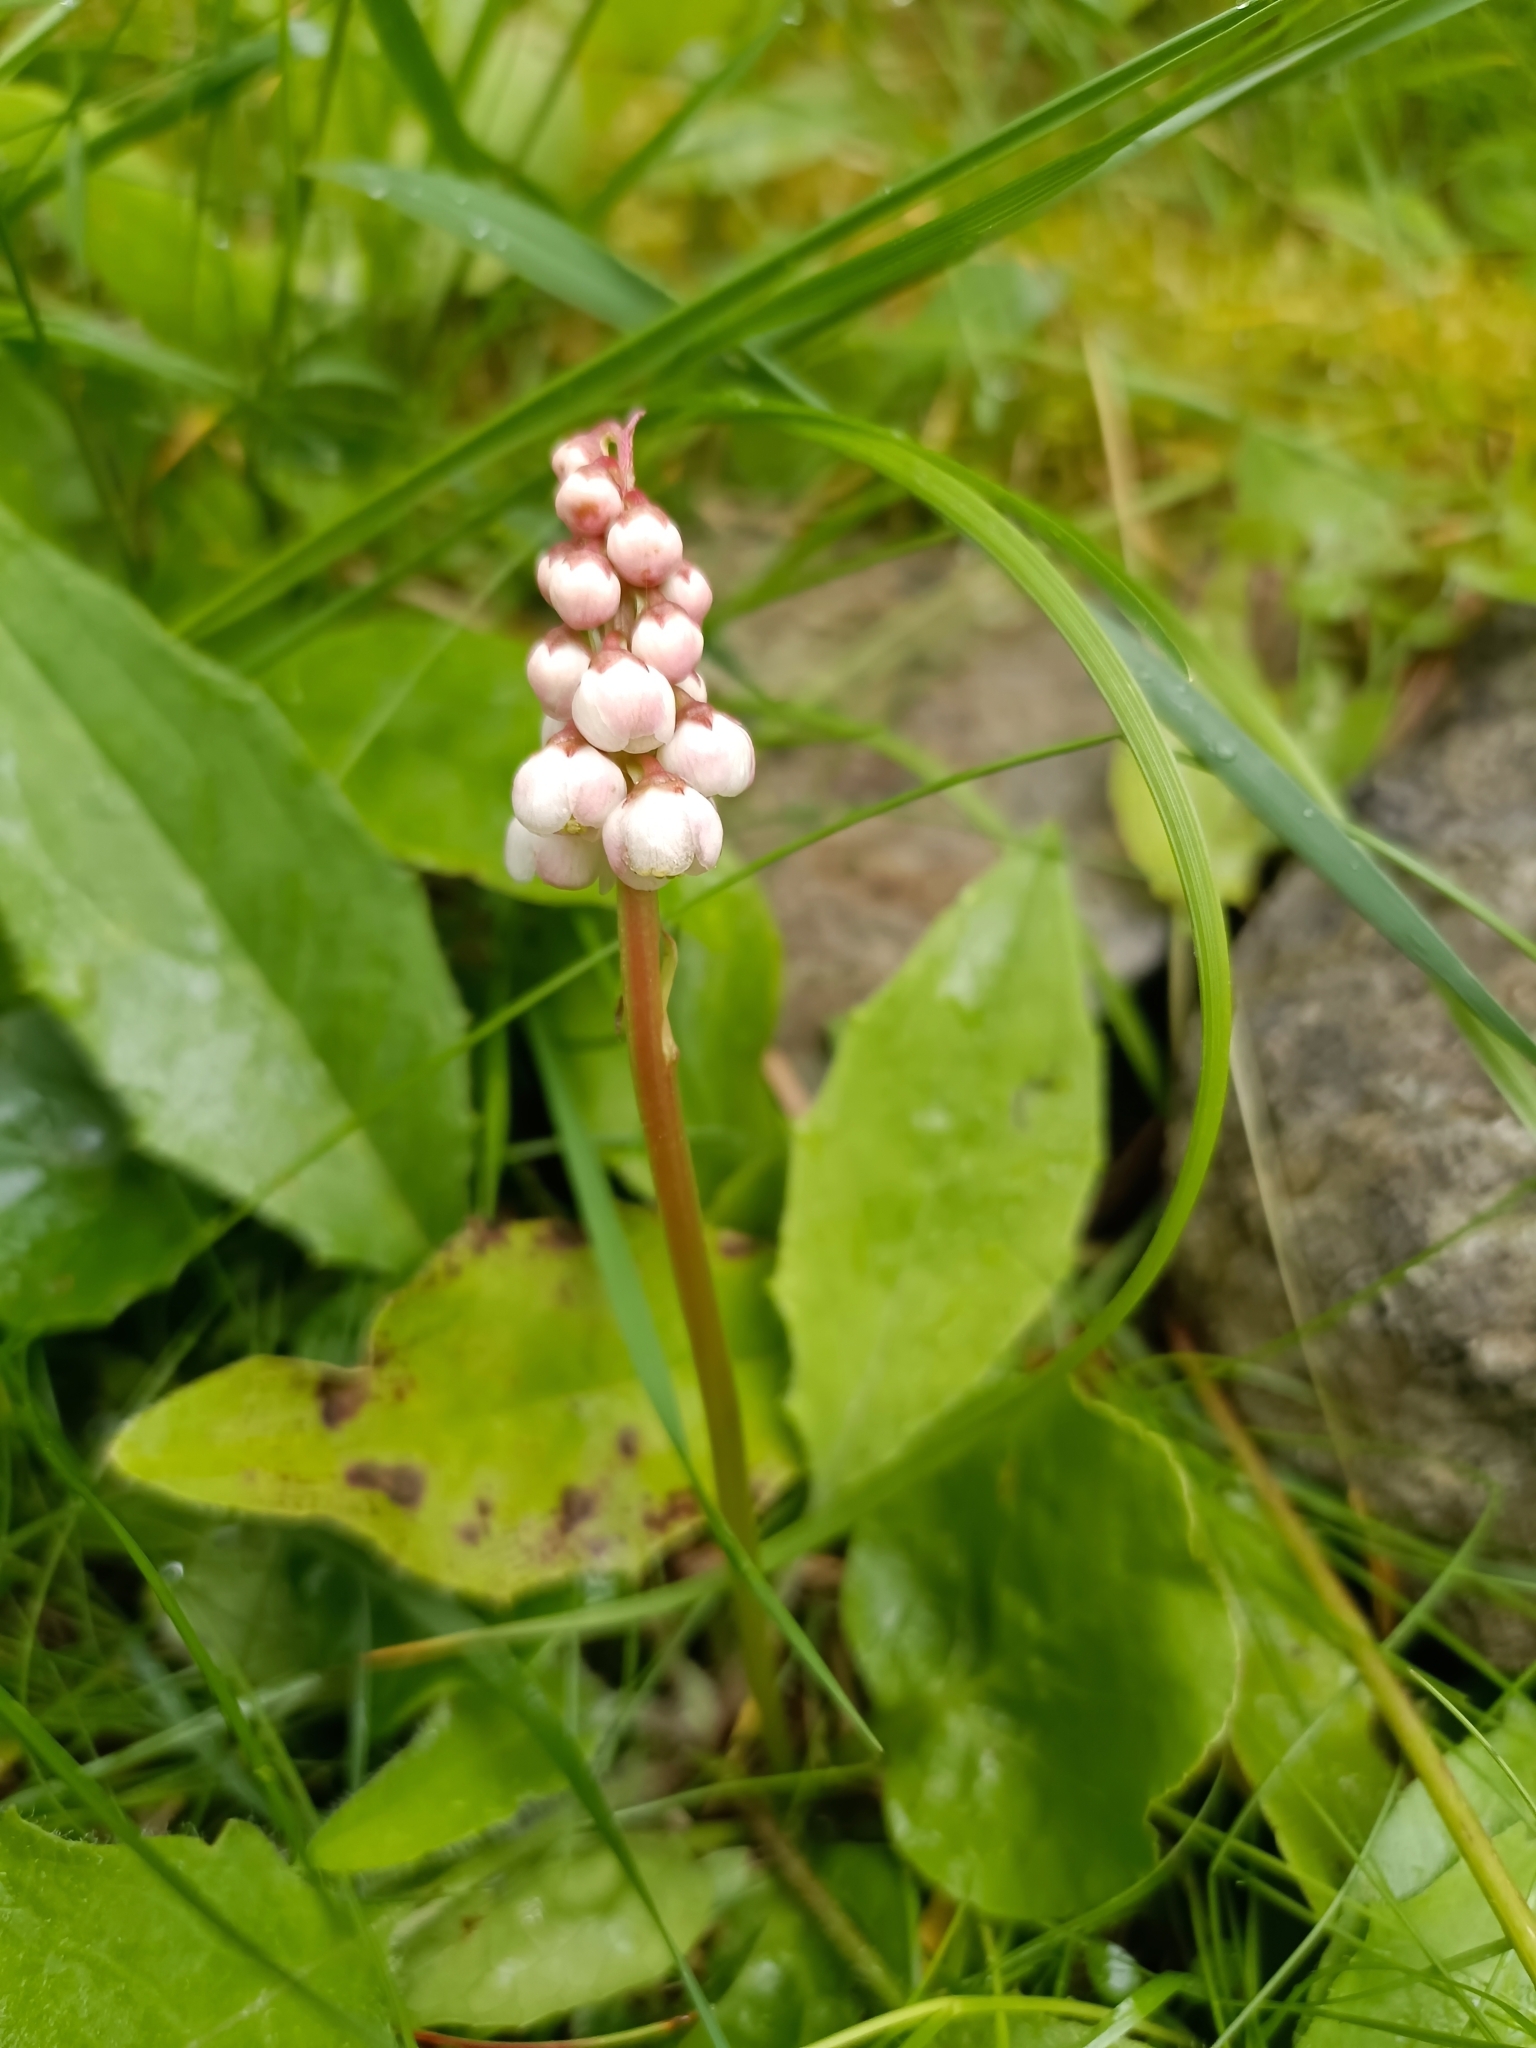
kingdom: Plantae
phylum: Tracheophyta
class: Magnoliopsida
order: Ericales
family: Ericaceae
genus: Pyrola
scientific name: Pyrola minor
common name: Common wintergreen
